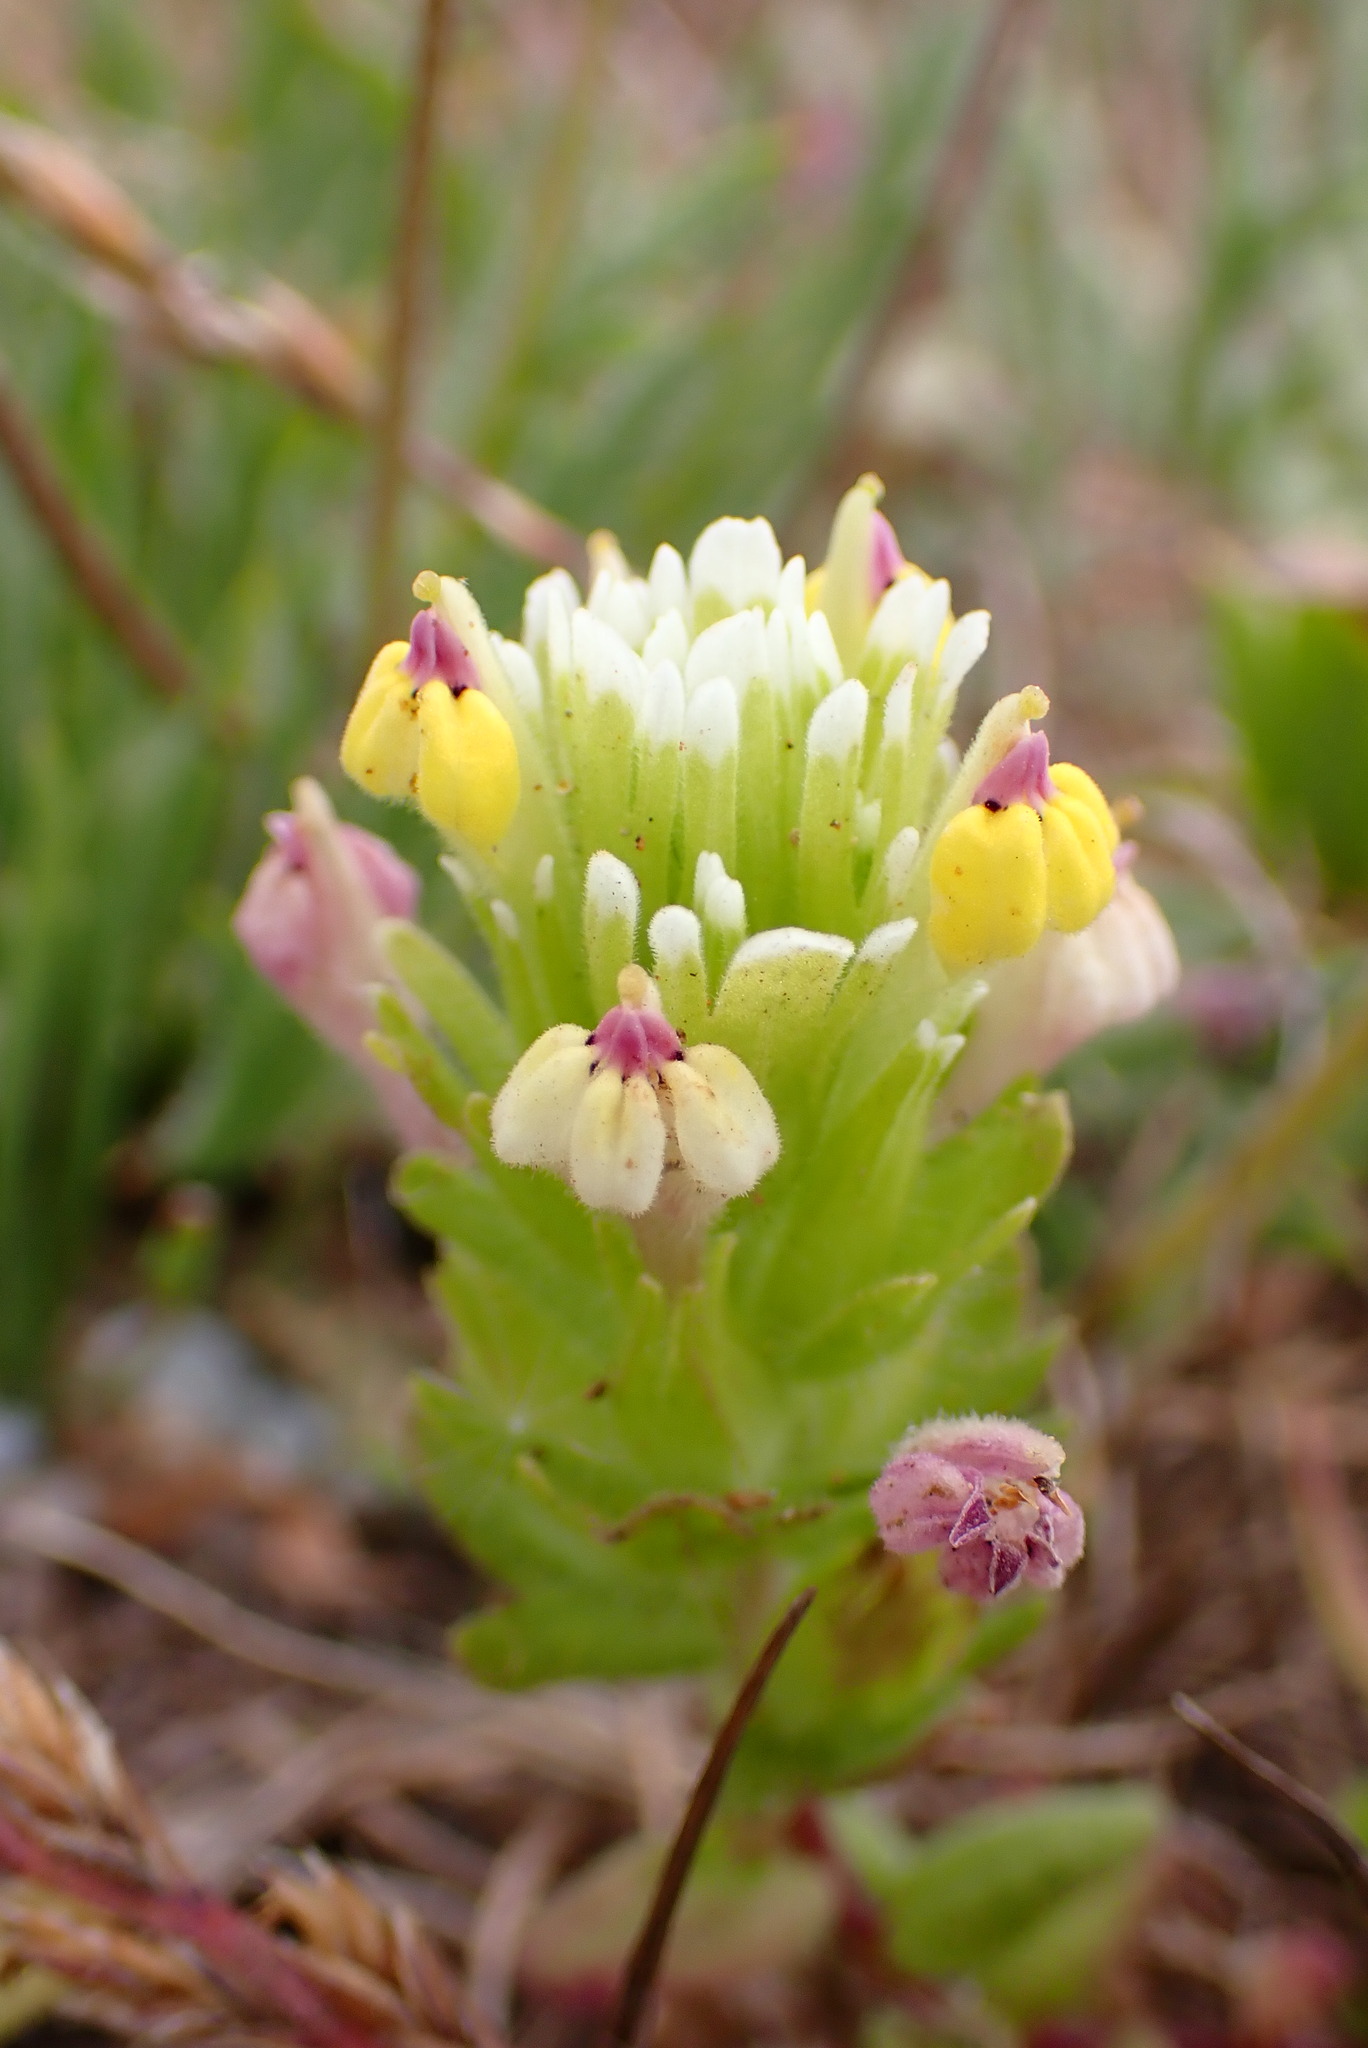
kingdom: Plantae
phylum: Tracheophyta
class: Magnoliopsida
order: Lamiales
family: Orobanchaceae
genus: Castilleja
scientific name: Castilleja ambigua
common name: Johnny-nip
